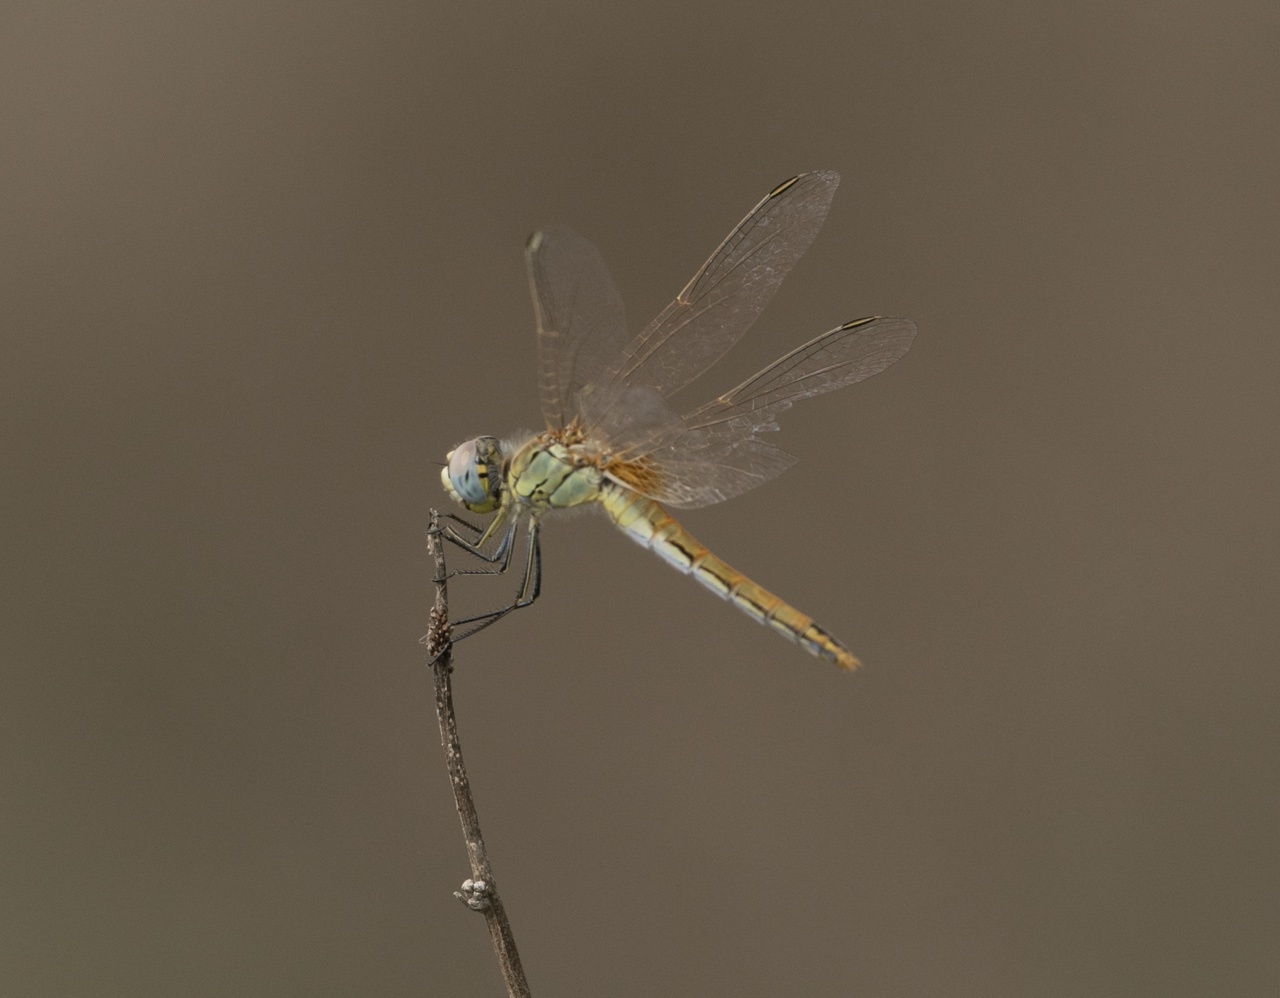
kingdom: Animalia
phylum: Arthropoda
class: Insecta
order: Odonata
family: Libellulidae
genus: Sympetrum
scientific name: Sympetrum fonscolombii
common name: Red-veined darter
